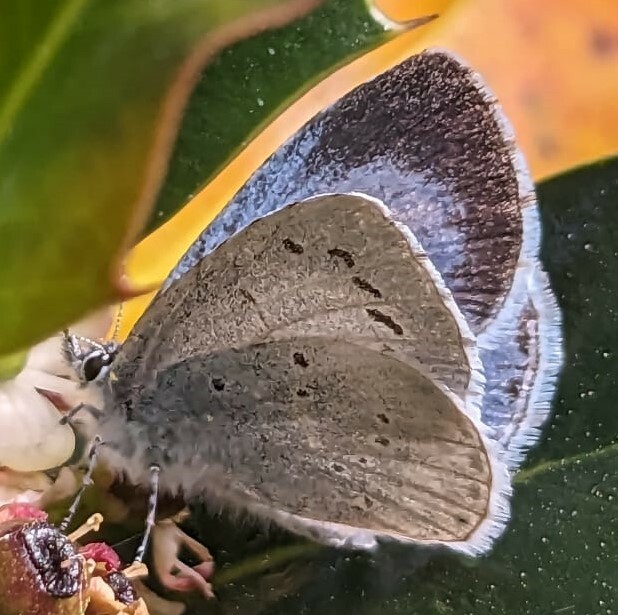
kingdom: Animalia
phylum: Arthropoda
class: Insecta
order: Lepidoptera
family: Lycaenidae
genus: Celastrina
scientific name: Celastrina argiolus
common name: Holly blue
